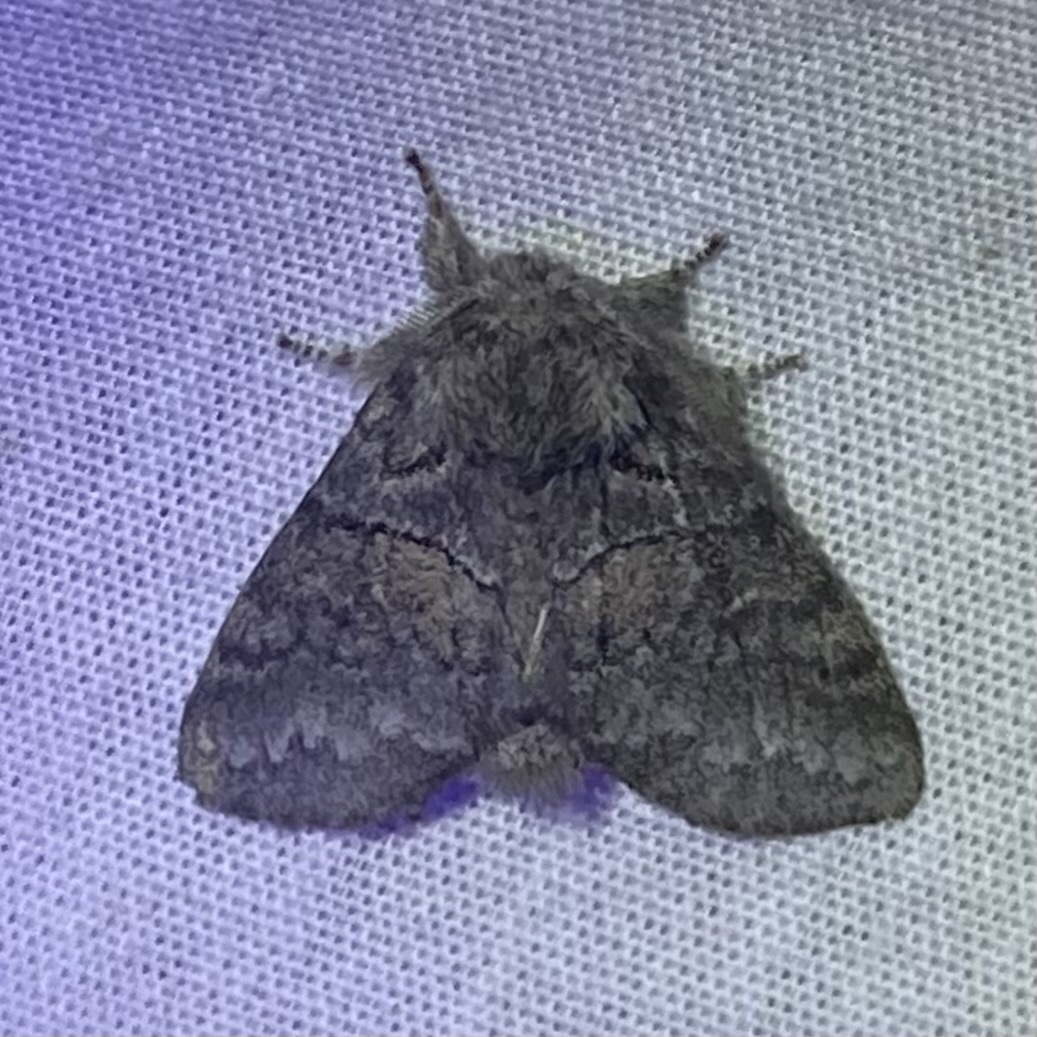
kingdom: Animalia
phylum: Arthropoda
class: Insecta
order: Lepidoptera
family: Notodontidae
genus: Gluphisia
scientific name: Gluphisia septentrionis
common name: Common gluphisia
